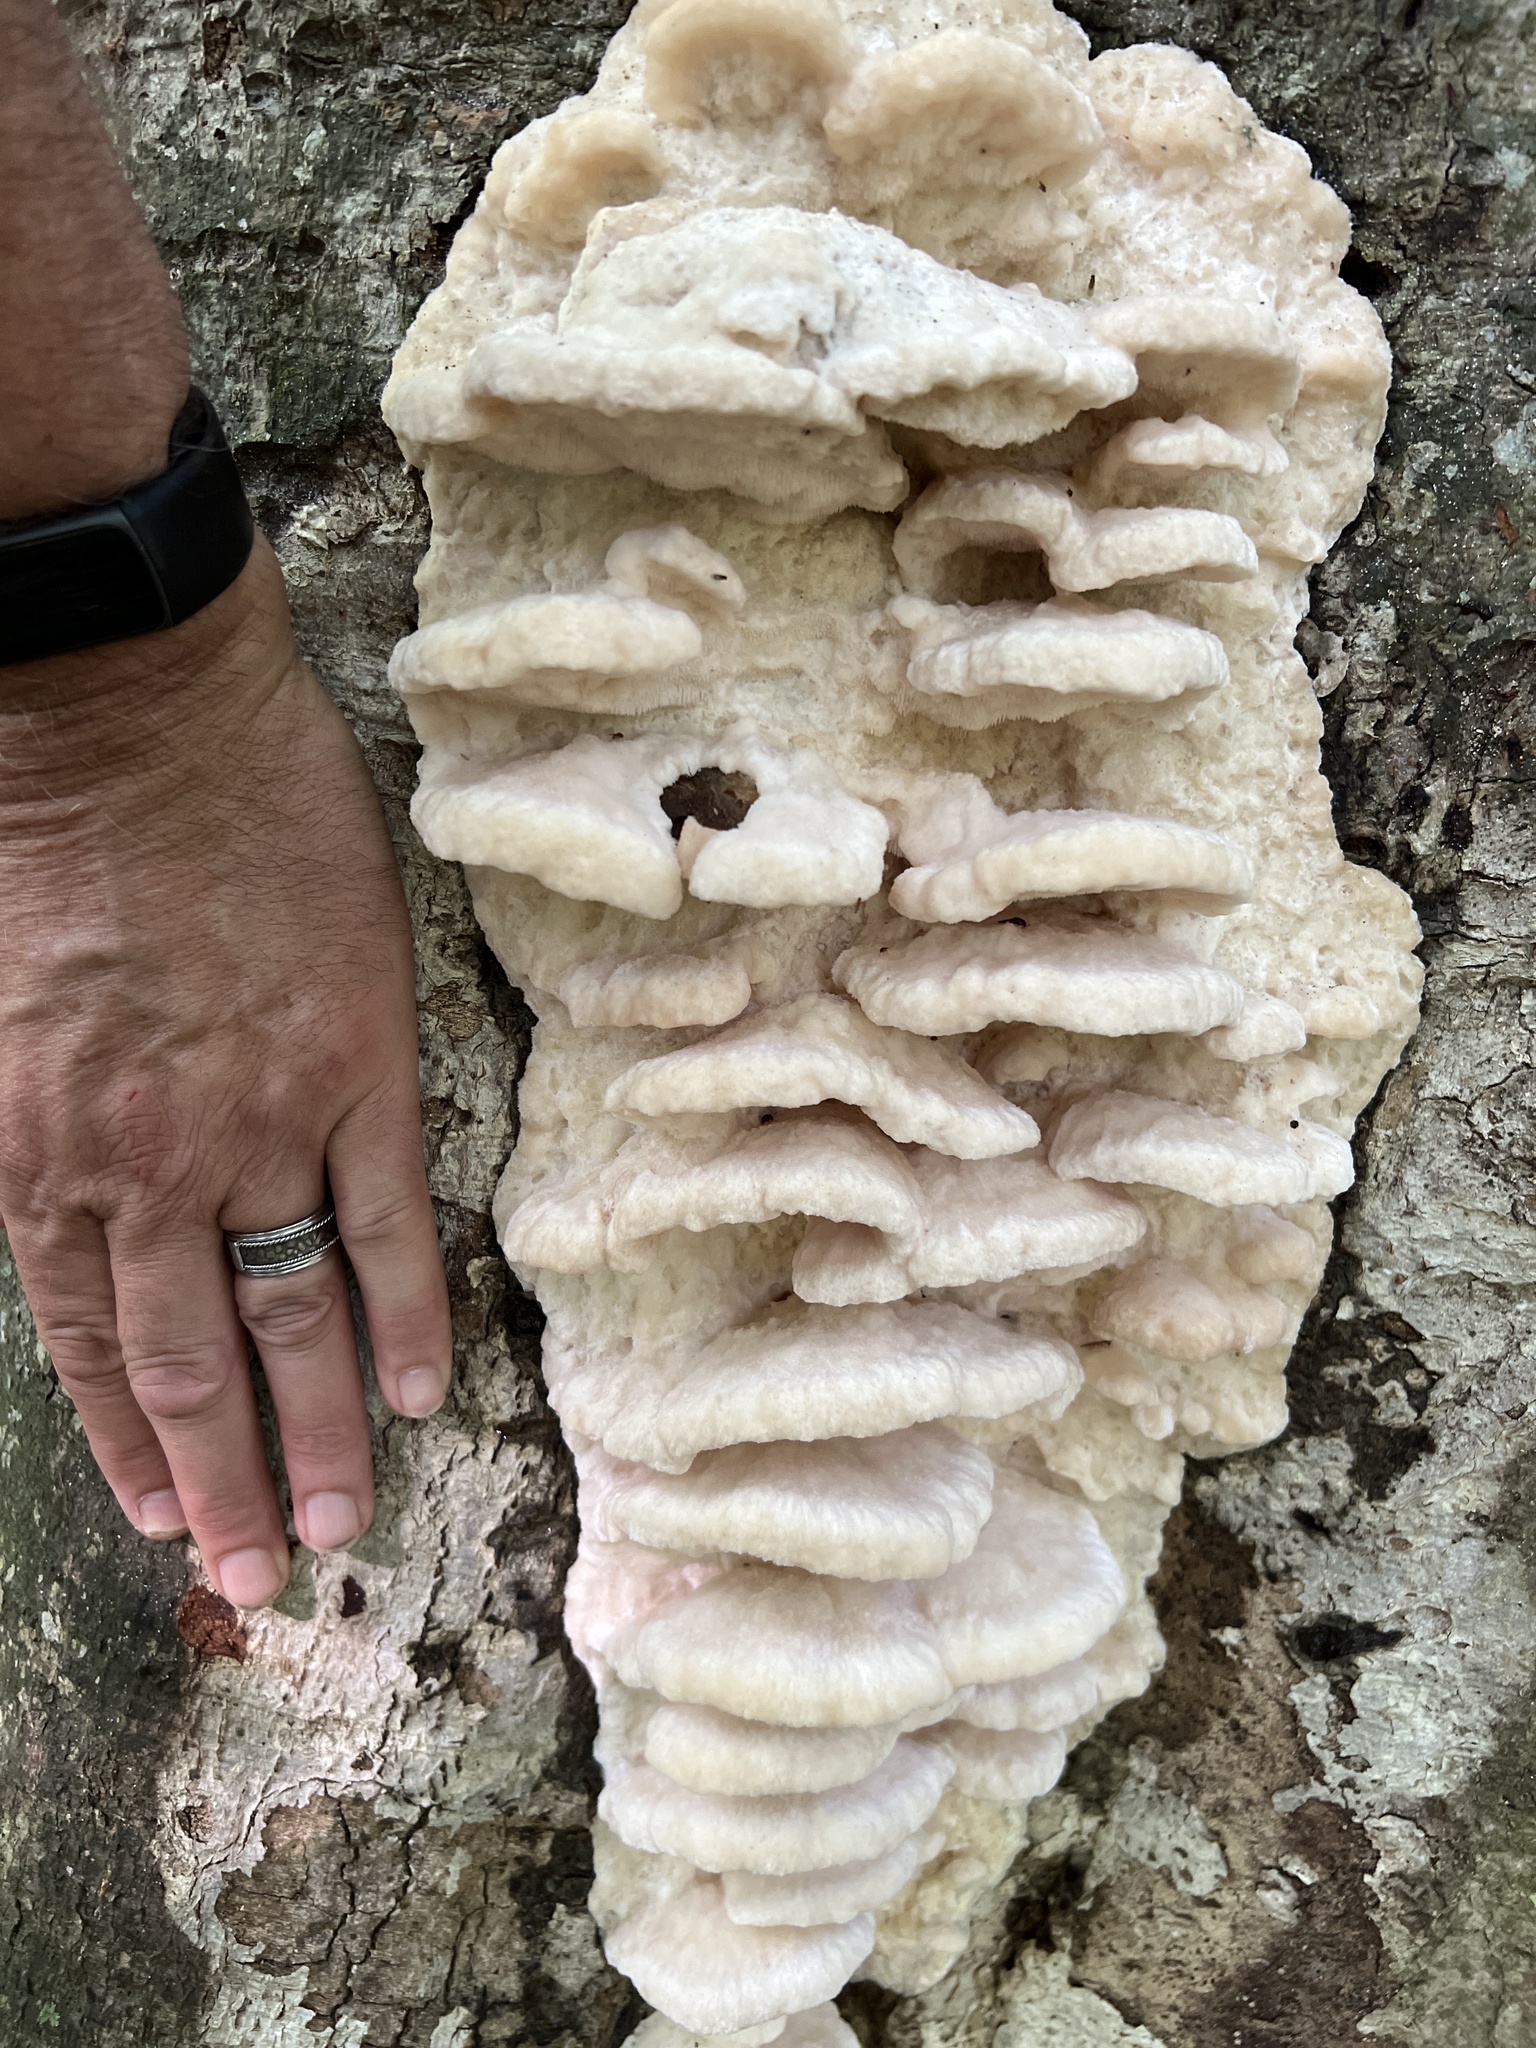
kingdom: Fungi
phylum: Basidiomycota
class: Agaricomycetes
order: Polyporales
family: Meruliaceae
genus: Climacodon
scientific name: Climacodon septentrionalis
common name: Northern tooth
